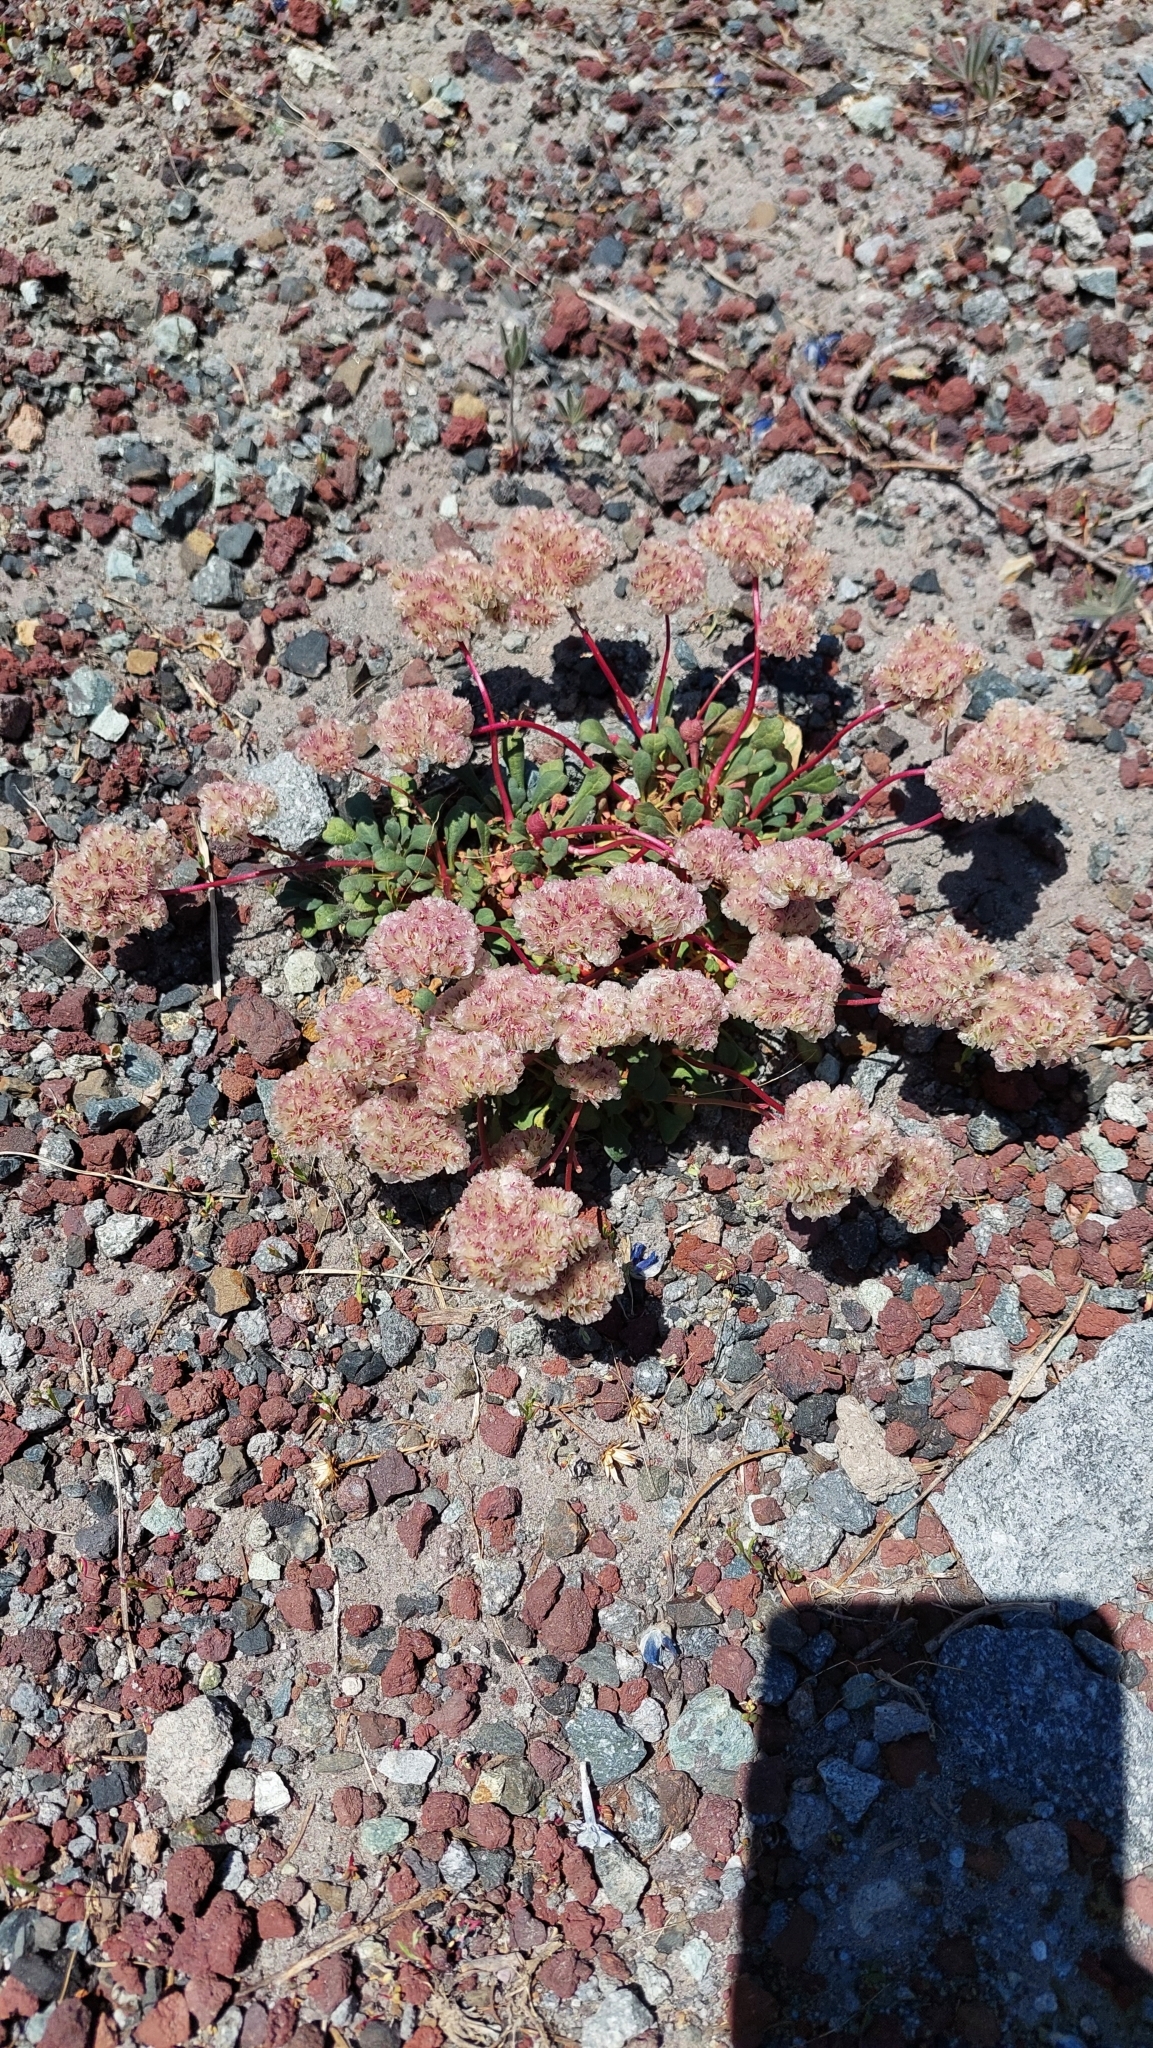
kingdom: Plantae
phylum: Tracheophyta
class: Magnoliopsida
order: Caryophyllales
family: Montiaceae
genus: Calyptridium
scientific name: Calyptridium umbellatum
